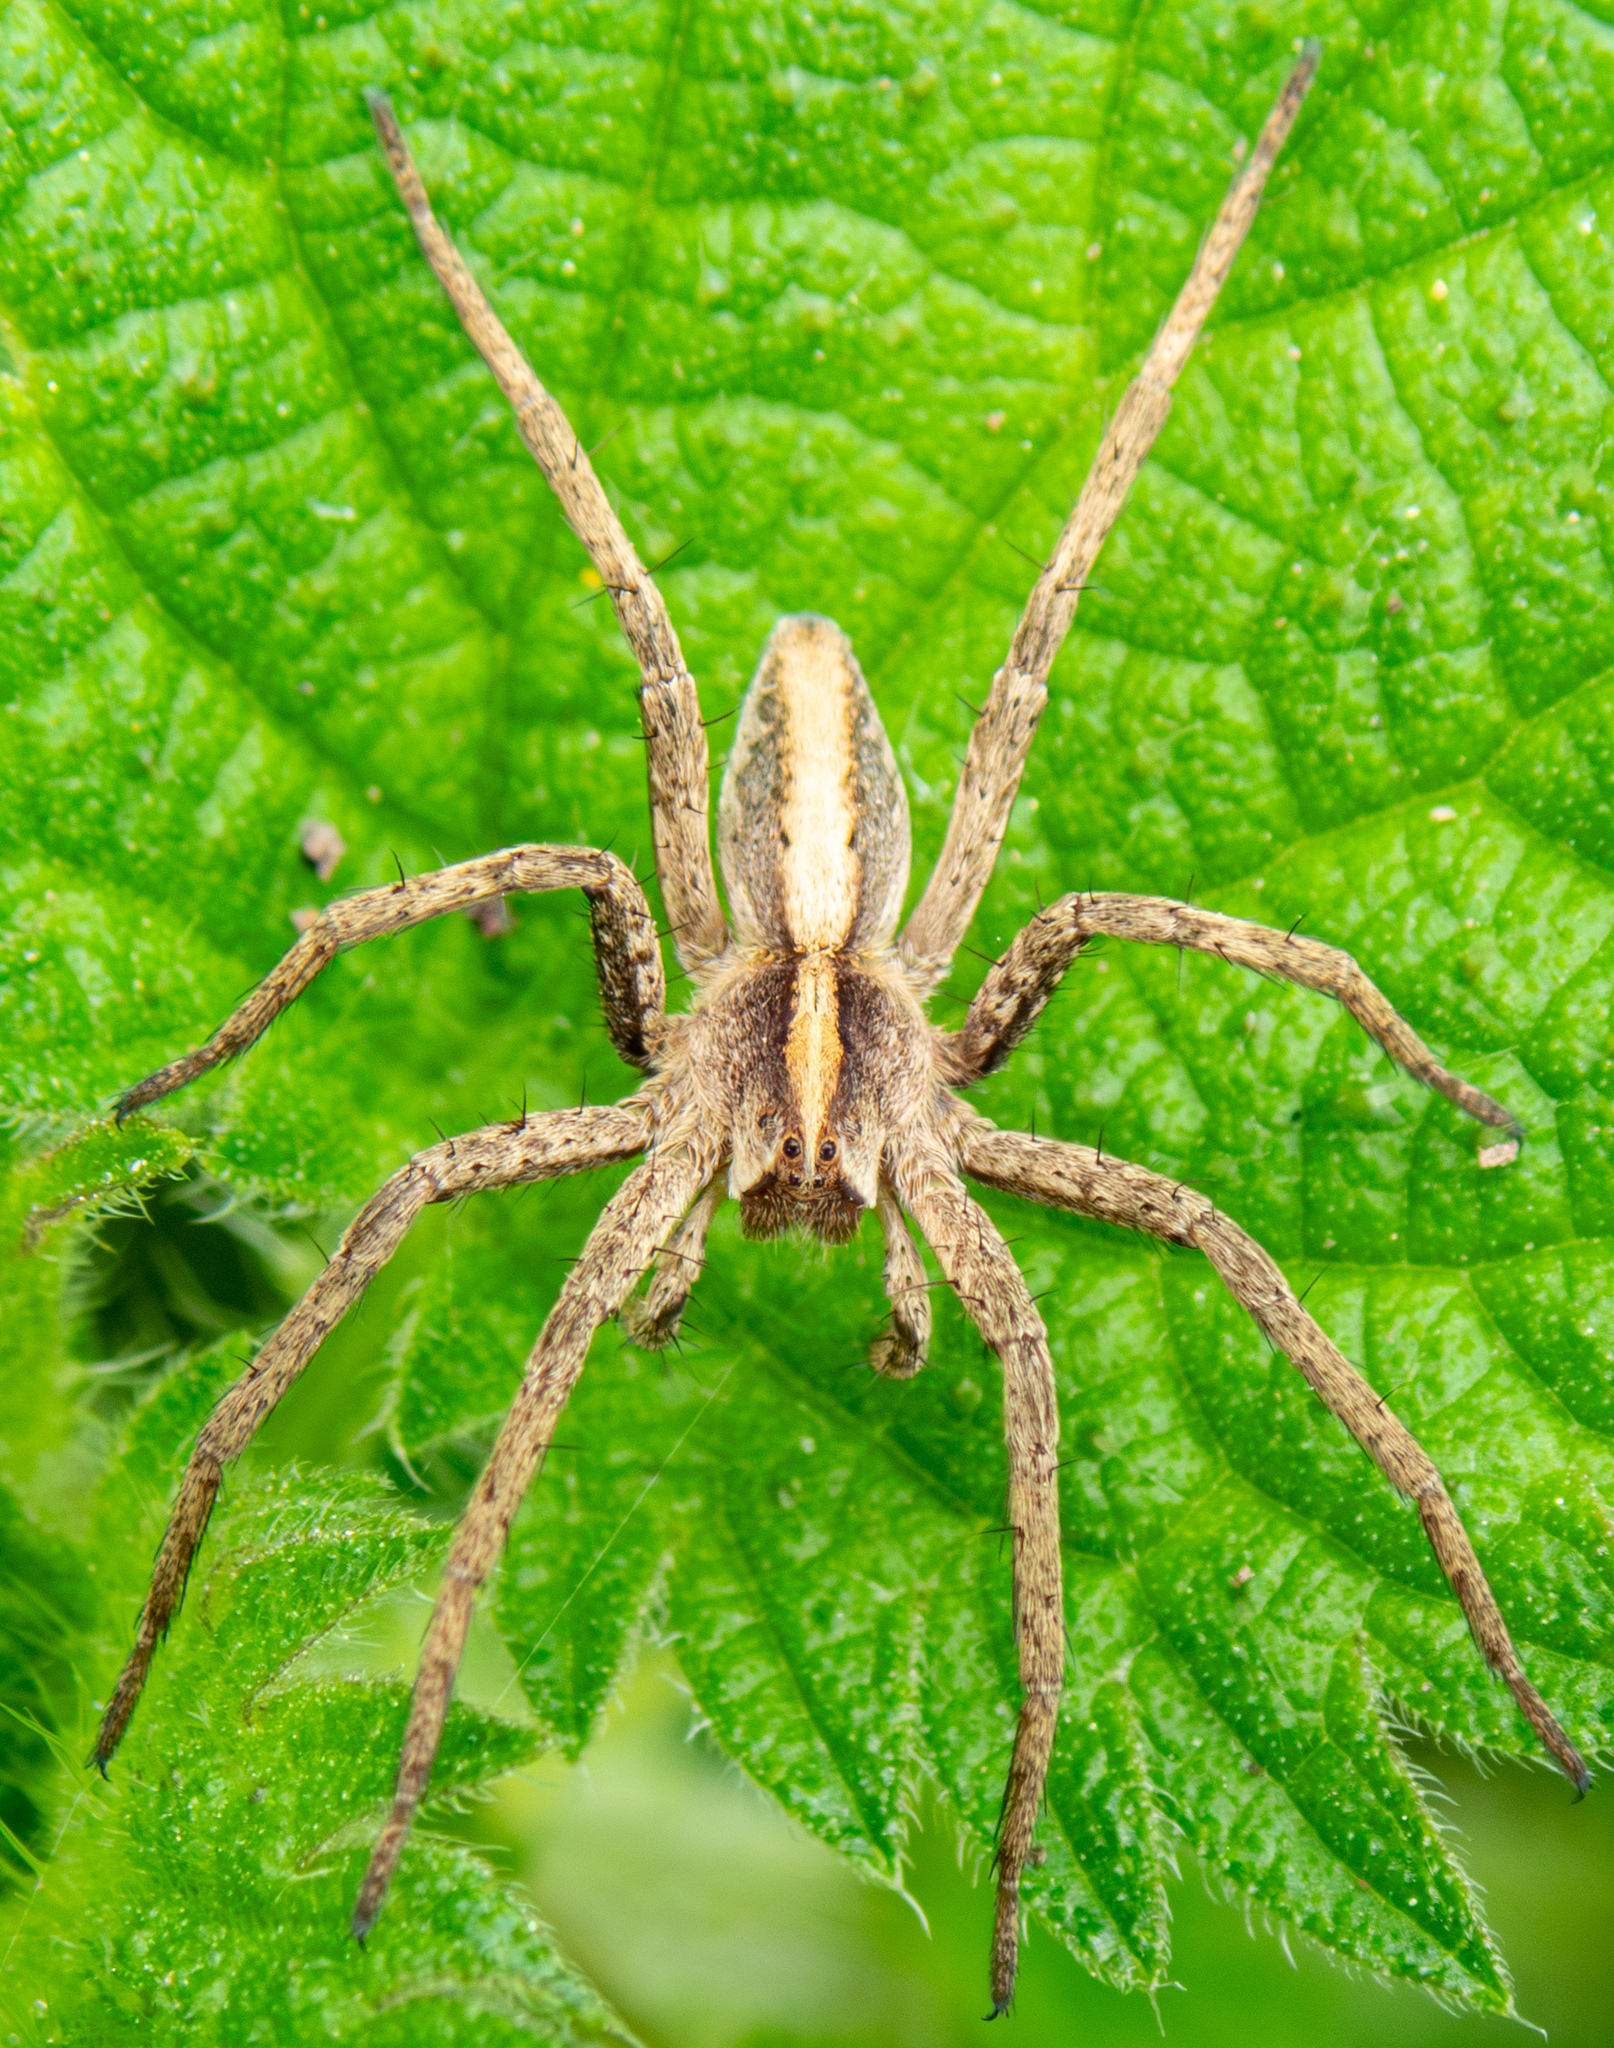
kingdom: Animalia
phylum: Arthropoda
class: Arachnida
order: Araneae
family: Pisauridae
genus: Pisaura
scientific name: Pisaura mirabilis
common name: Tent spider
